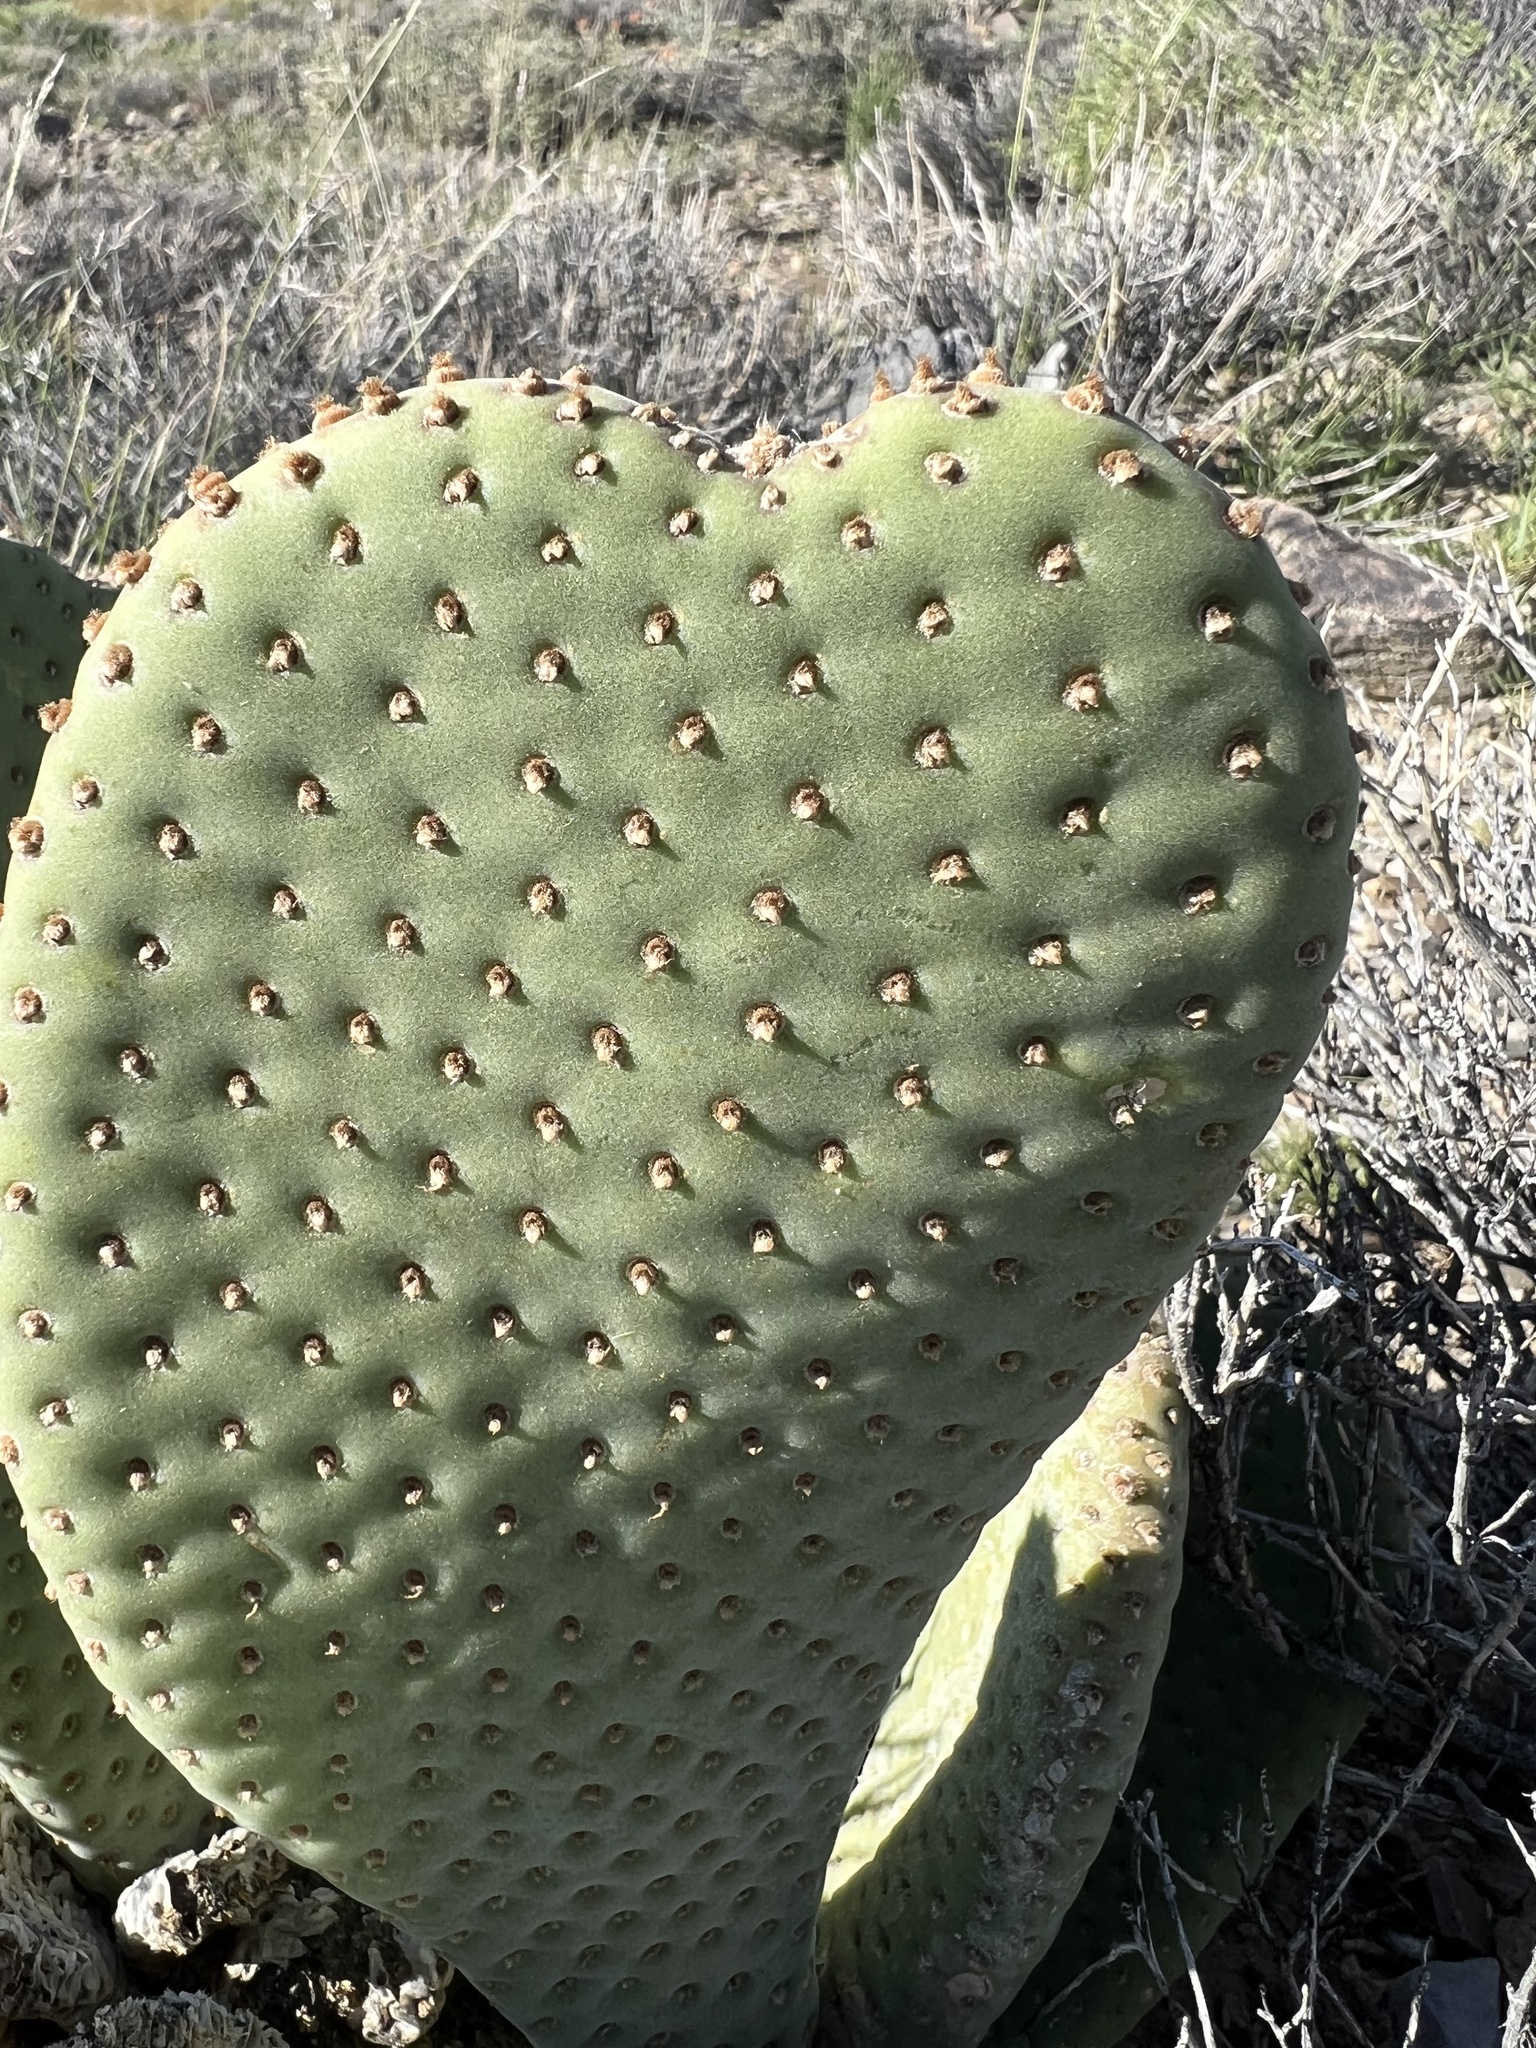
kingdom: Plantae
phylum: Tracheophyta
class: Magnoliopsida
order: Caryophyllales
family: Cactaceae
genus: Opuntia
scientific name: Opuntia basilaris
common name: Beavertail prickly-pear
